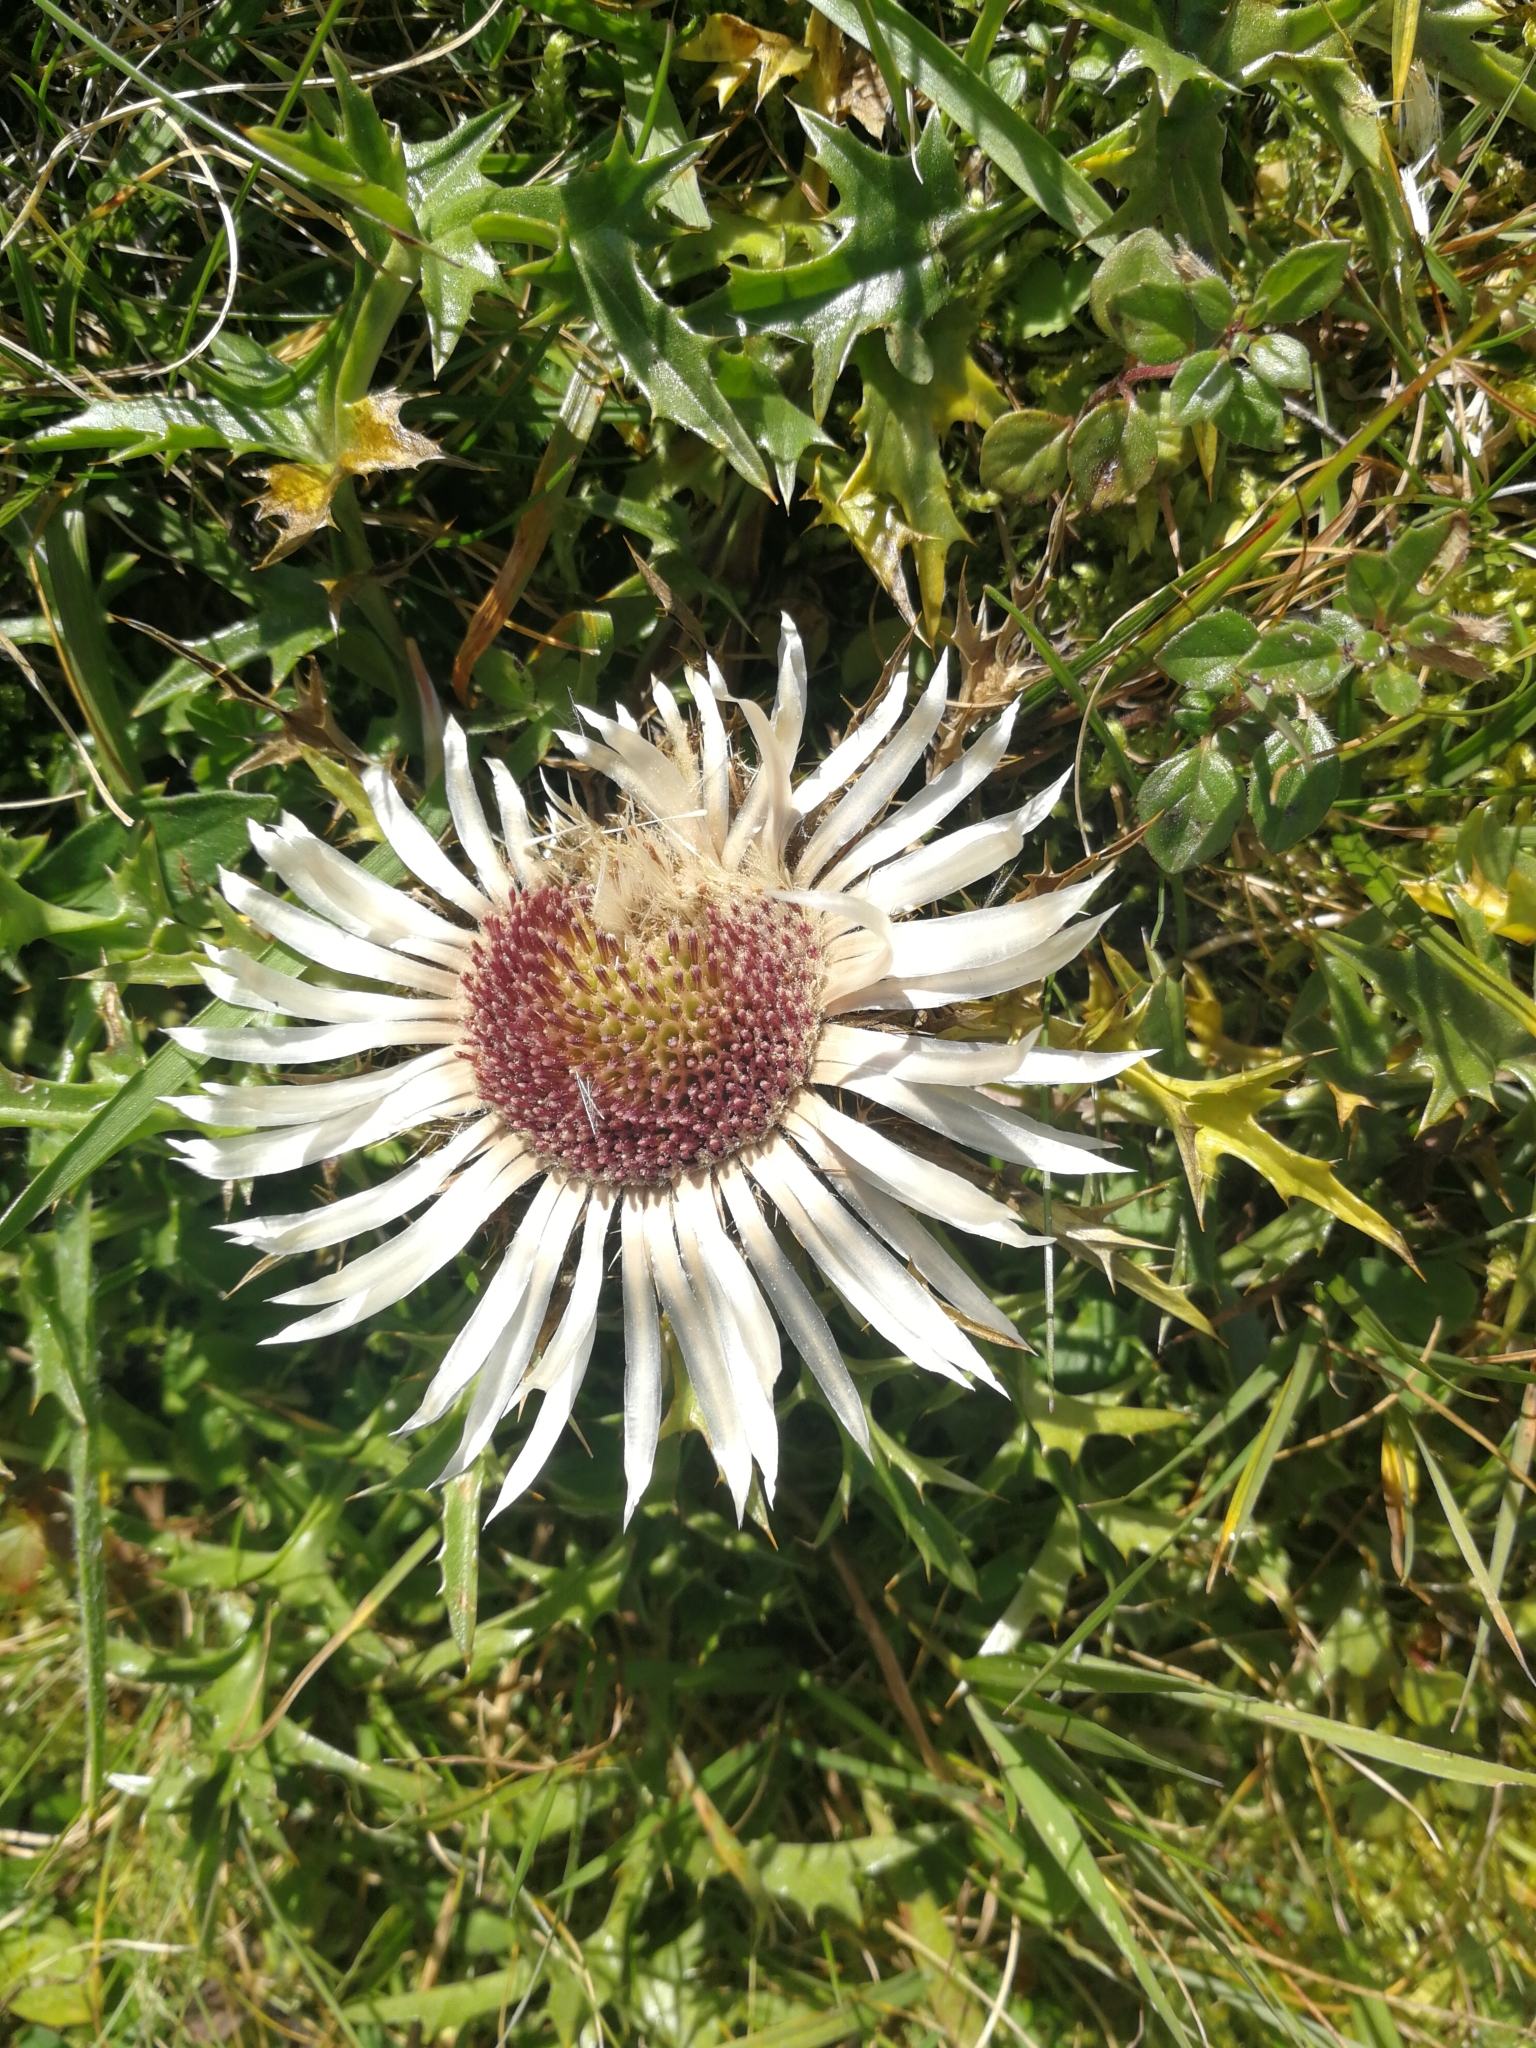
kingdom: Plantae
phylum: Tracheophyta
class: Magnoliopsida
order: Asterales
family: Asteraceae
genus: Carlina
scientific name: Carlina acaulis
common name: Stemless carline thistle
